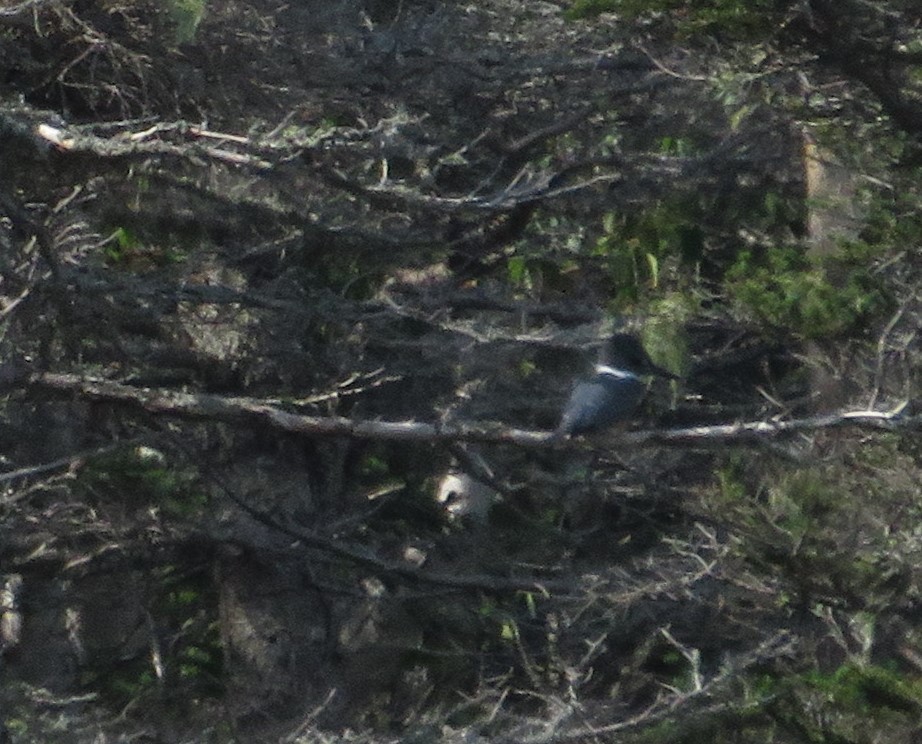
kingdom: Animalia
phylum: Chordata
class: Aves
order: Coraciiformes
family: Alcedinidae
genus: Megaceryle
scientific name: Megaceryle alcyon
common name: Belted kingfisher
